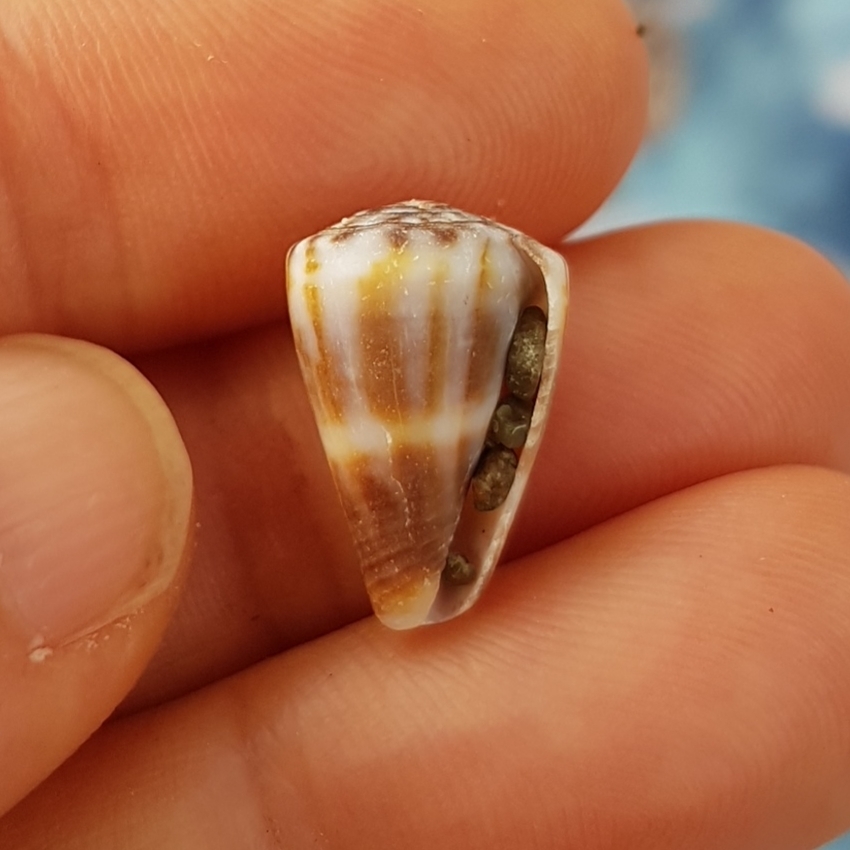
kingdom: Animalia
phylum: Mollusca
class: Gastropoda
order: Neogastropoda
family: Conidae
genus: Conus
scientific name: Conus gladiator
